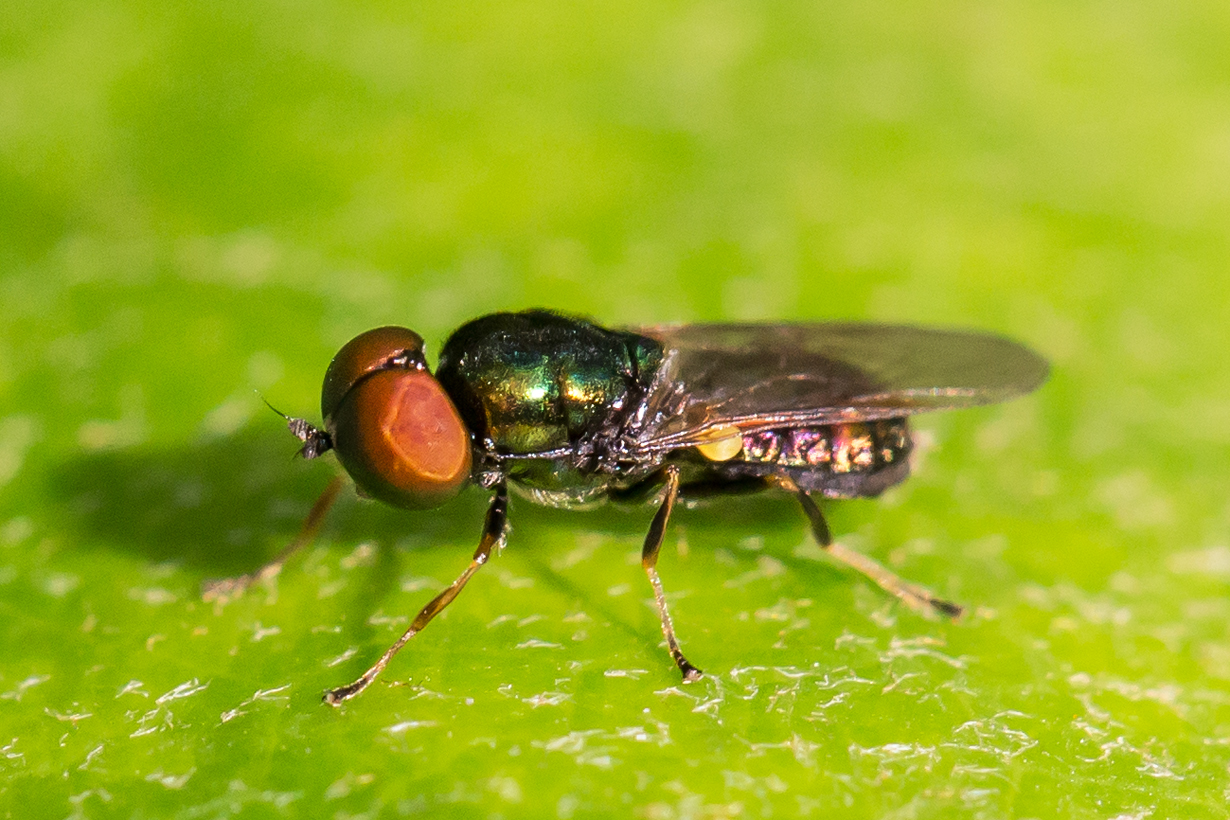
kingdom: Animalia
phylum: Arthropoda
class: Insecta
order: Diptera
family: Stratiomyidae
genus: Microchrysa
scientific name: Microchrysa polita
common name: Black-horned gem
